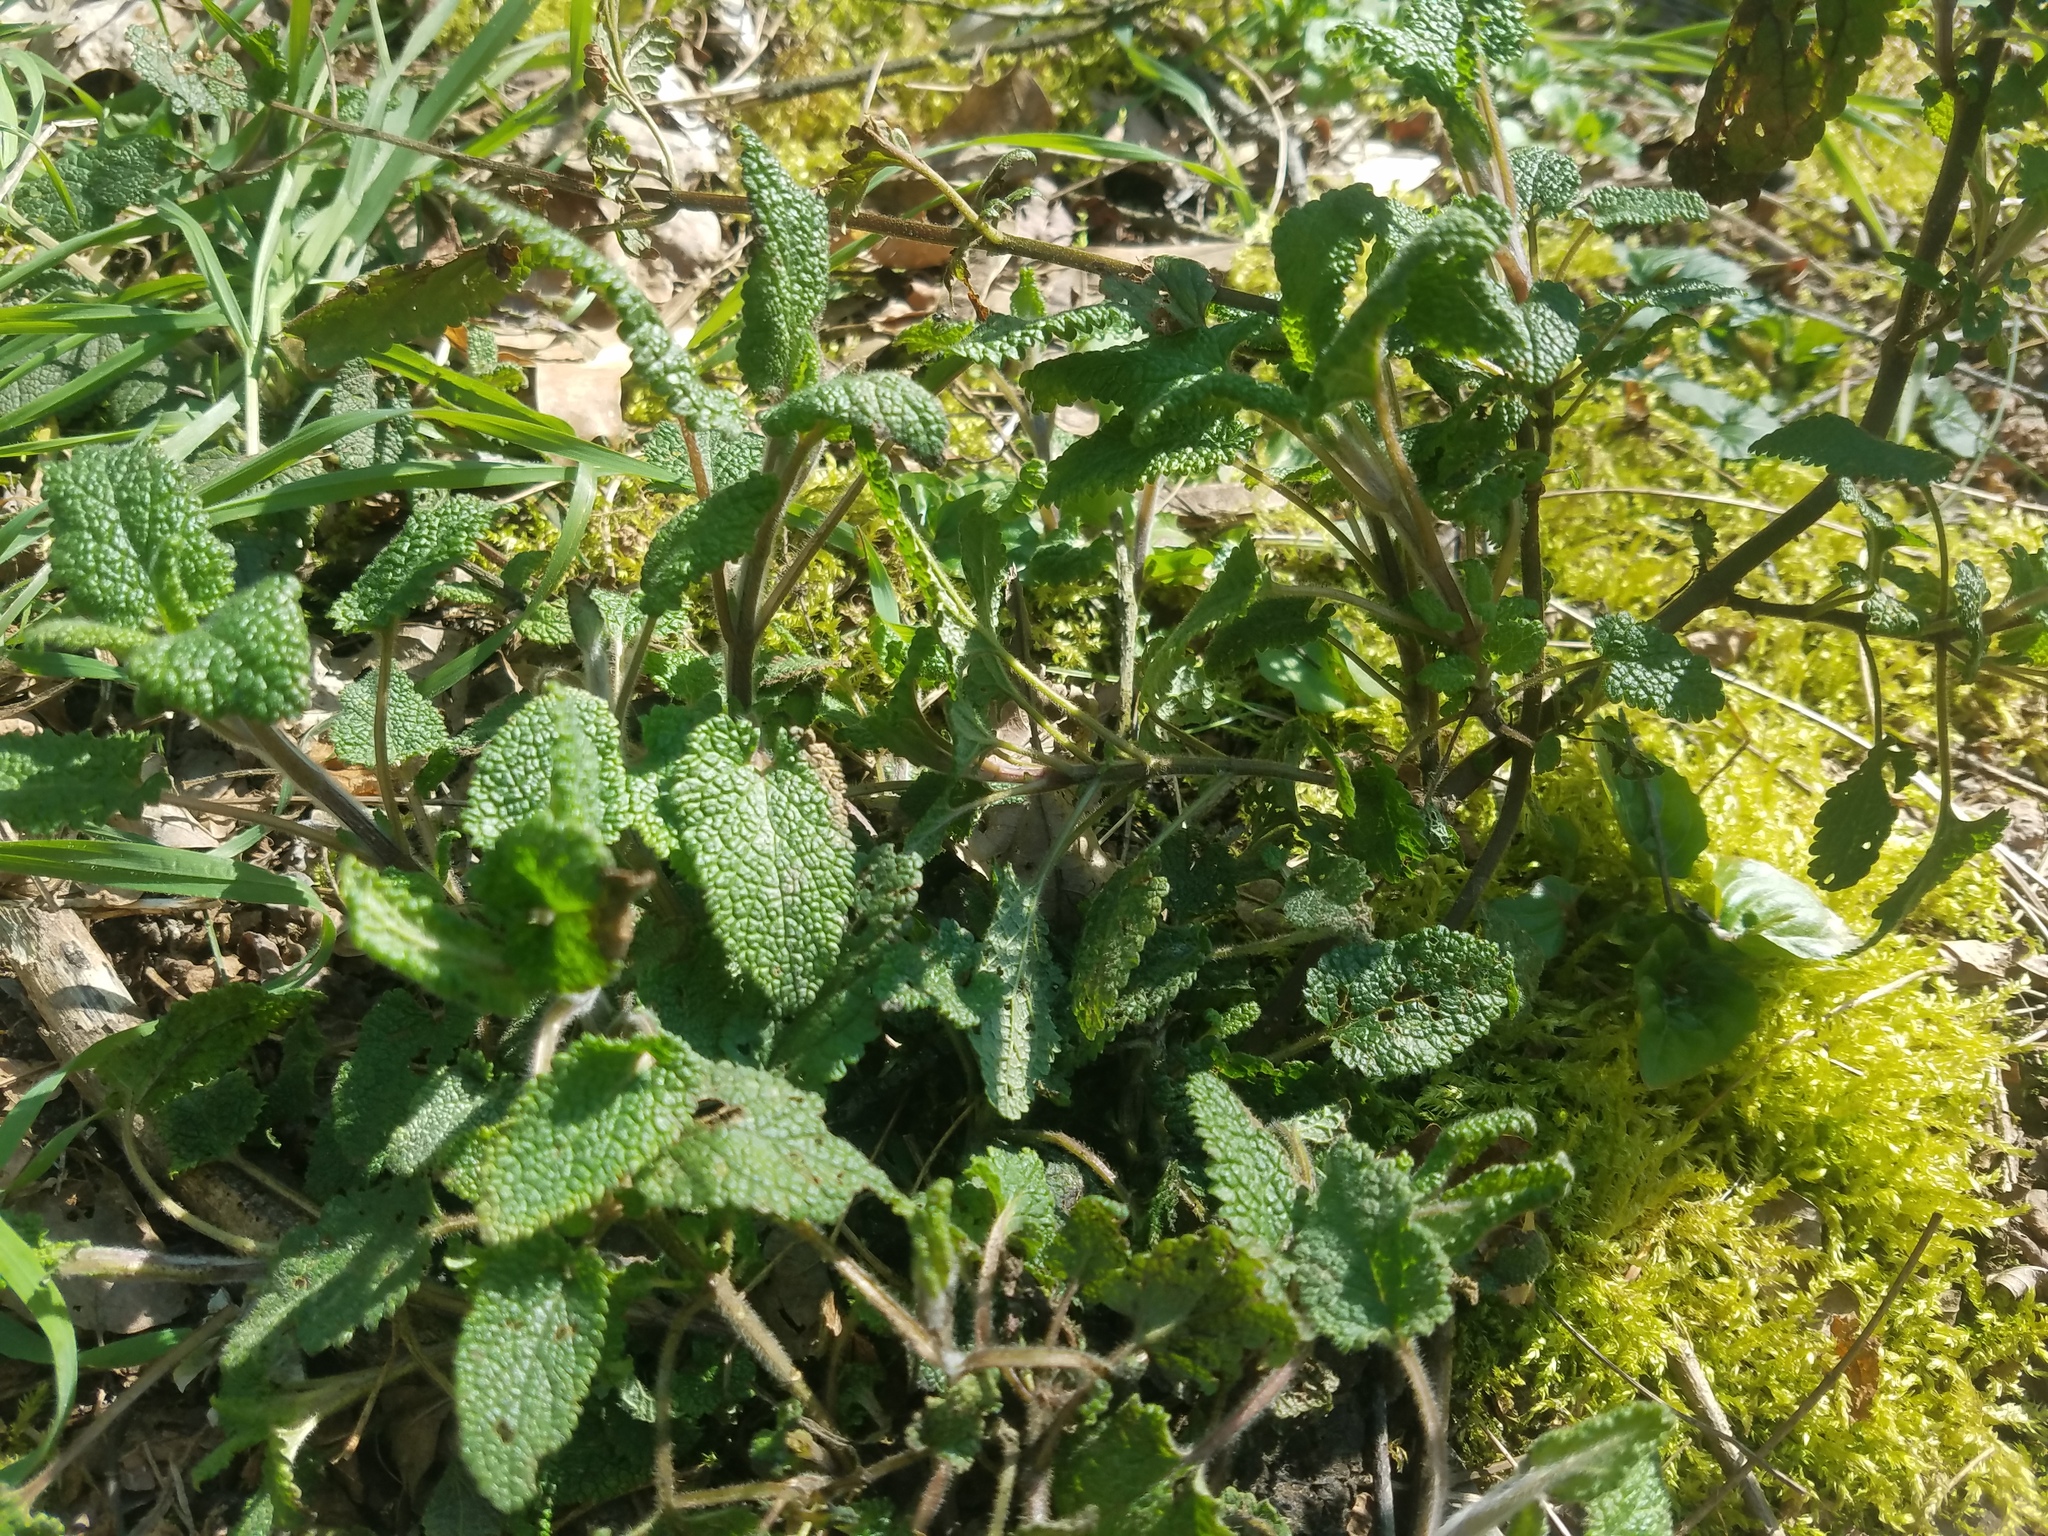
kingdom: Plantae
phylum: Tracheophyta
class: Magnoliopsida
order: Lamiales
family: Lamiaceae
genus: Teucrium
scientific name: Teucrium scorodonia
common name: Woodland germander
